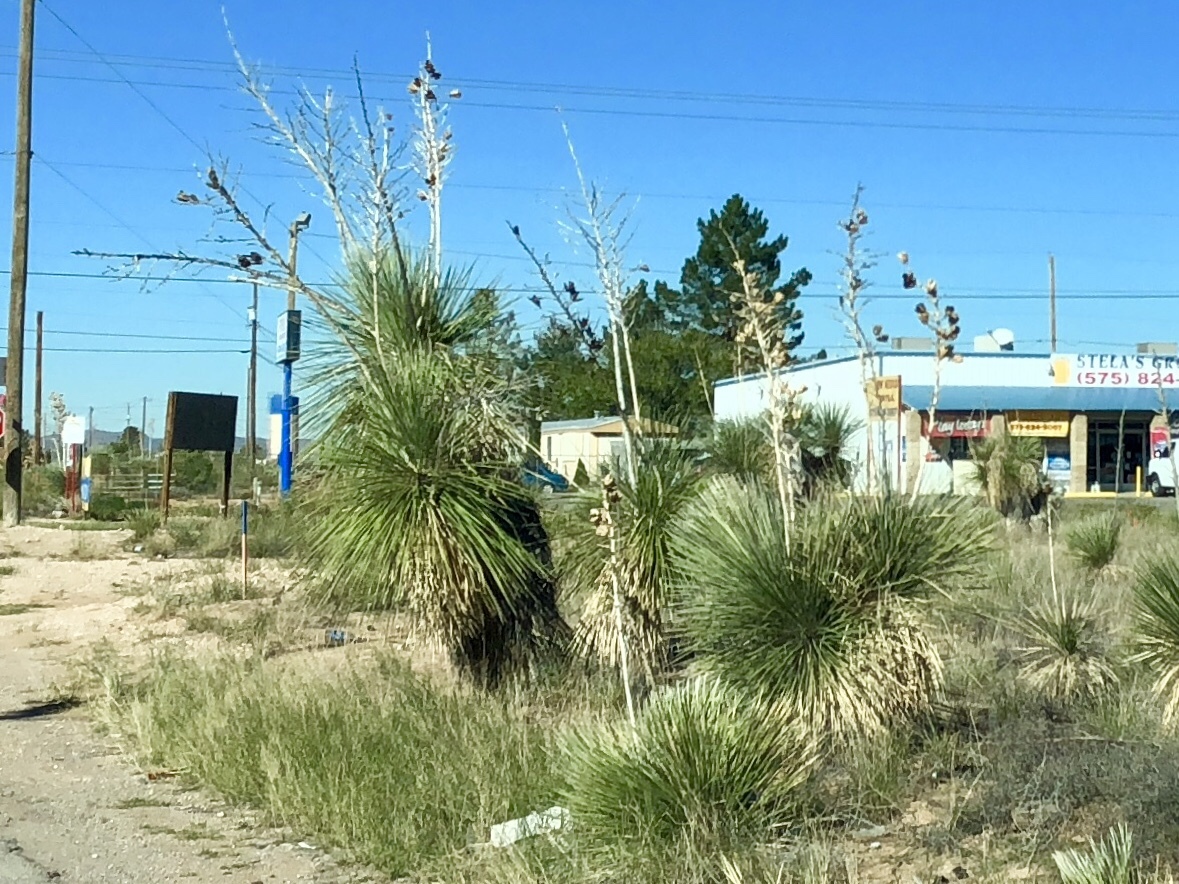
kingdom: Plantae
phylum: Tracheophyta
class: Liliopsida
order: Asparagales
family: Asparagaceae
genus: Yucca
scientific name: Yucca elata
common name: Palmella
